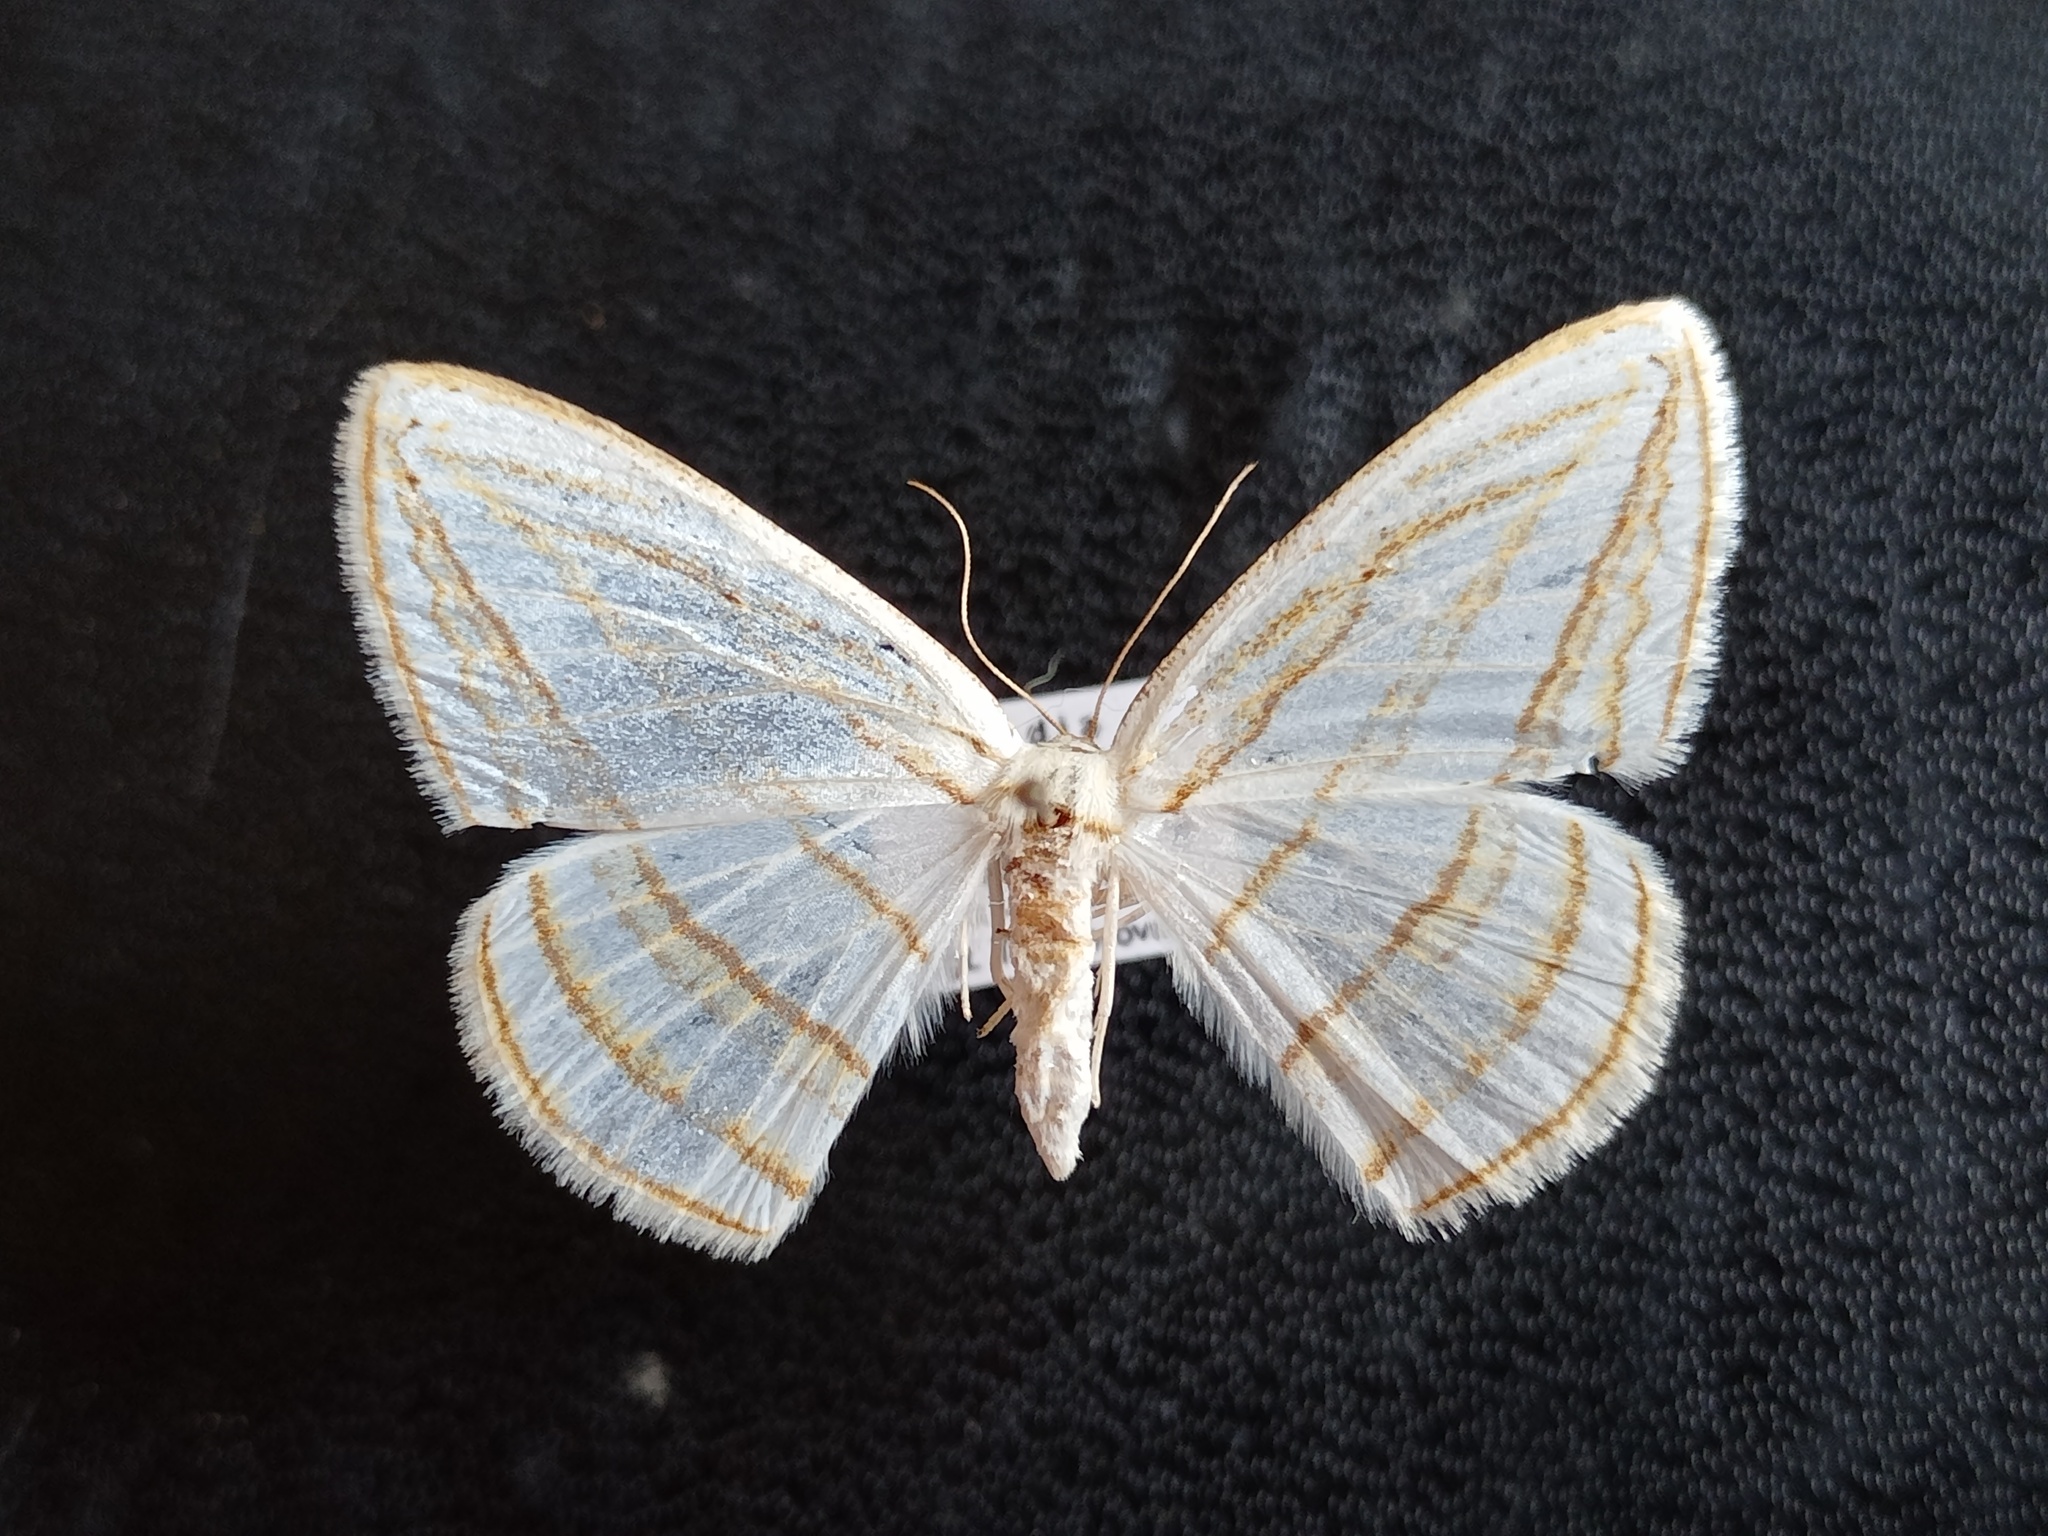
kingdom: Animalia
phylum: Arthropoda
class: Insecta
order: Lepidoptera
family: Geometridae
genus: Orthocabera
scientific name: Orthocabera sericea
